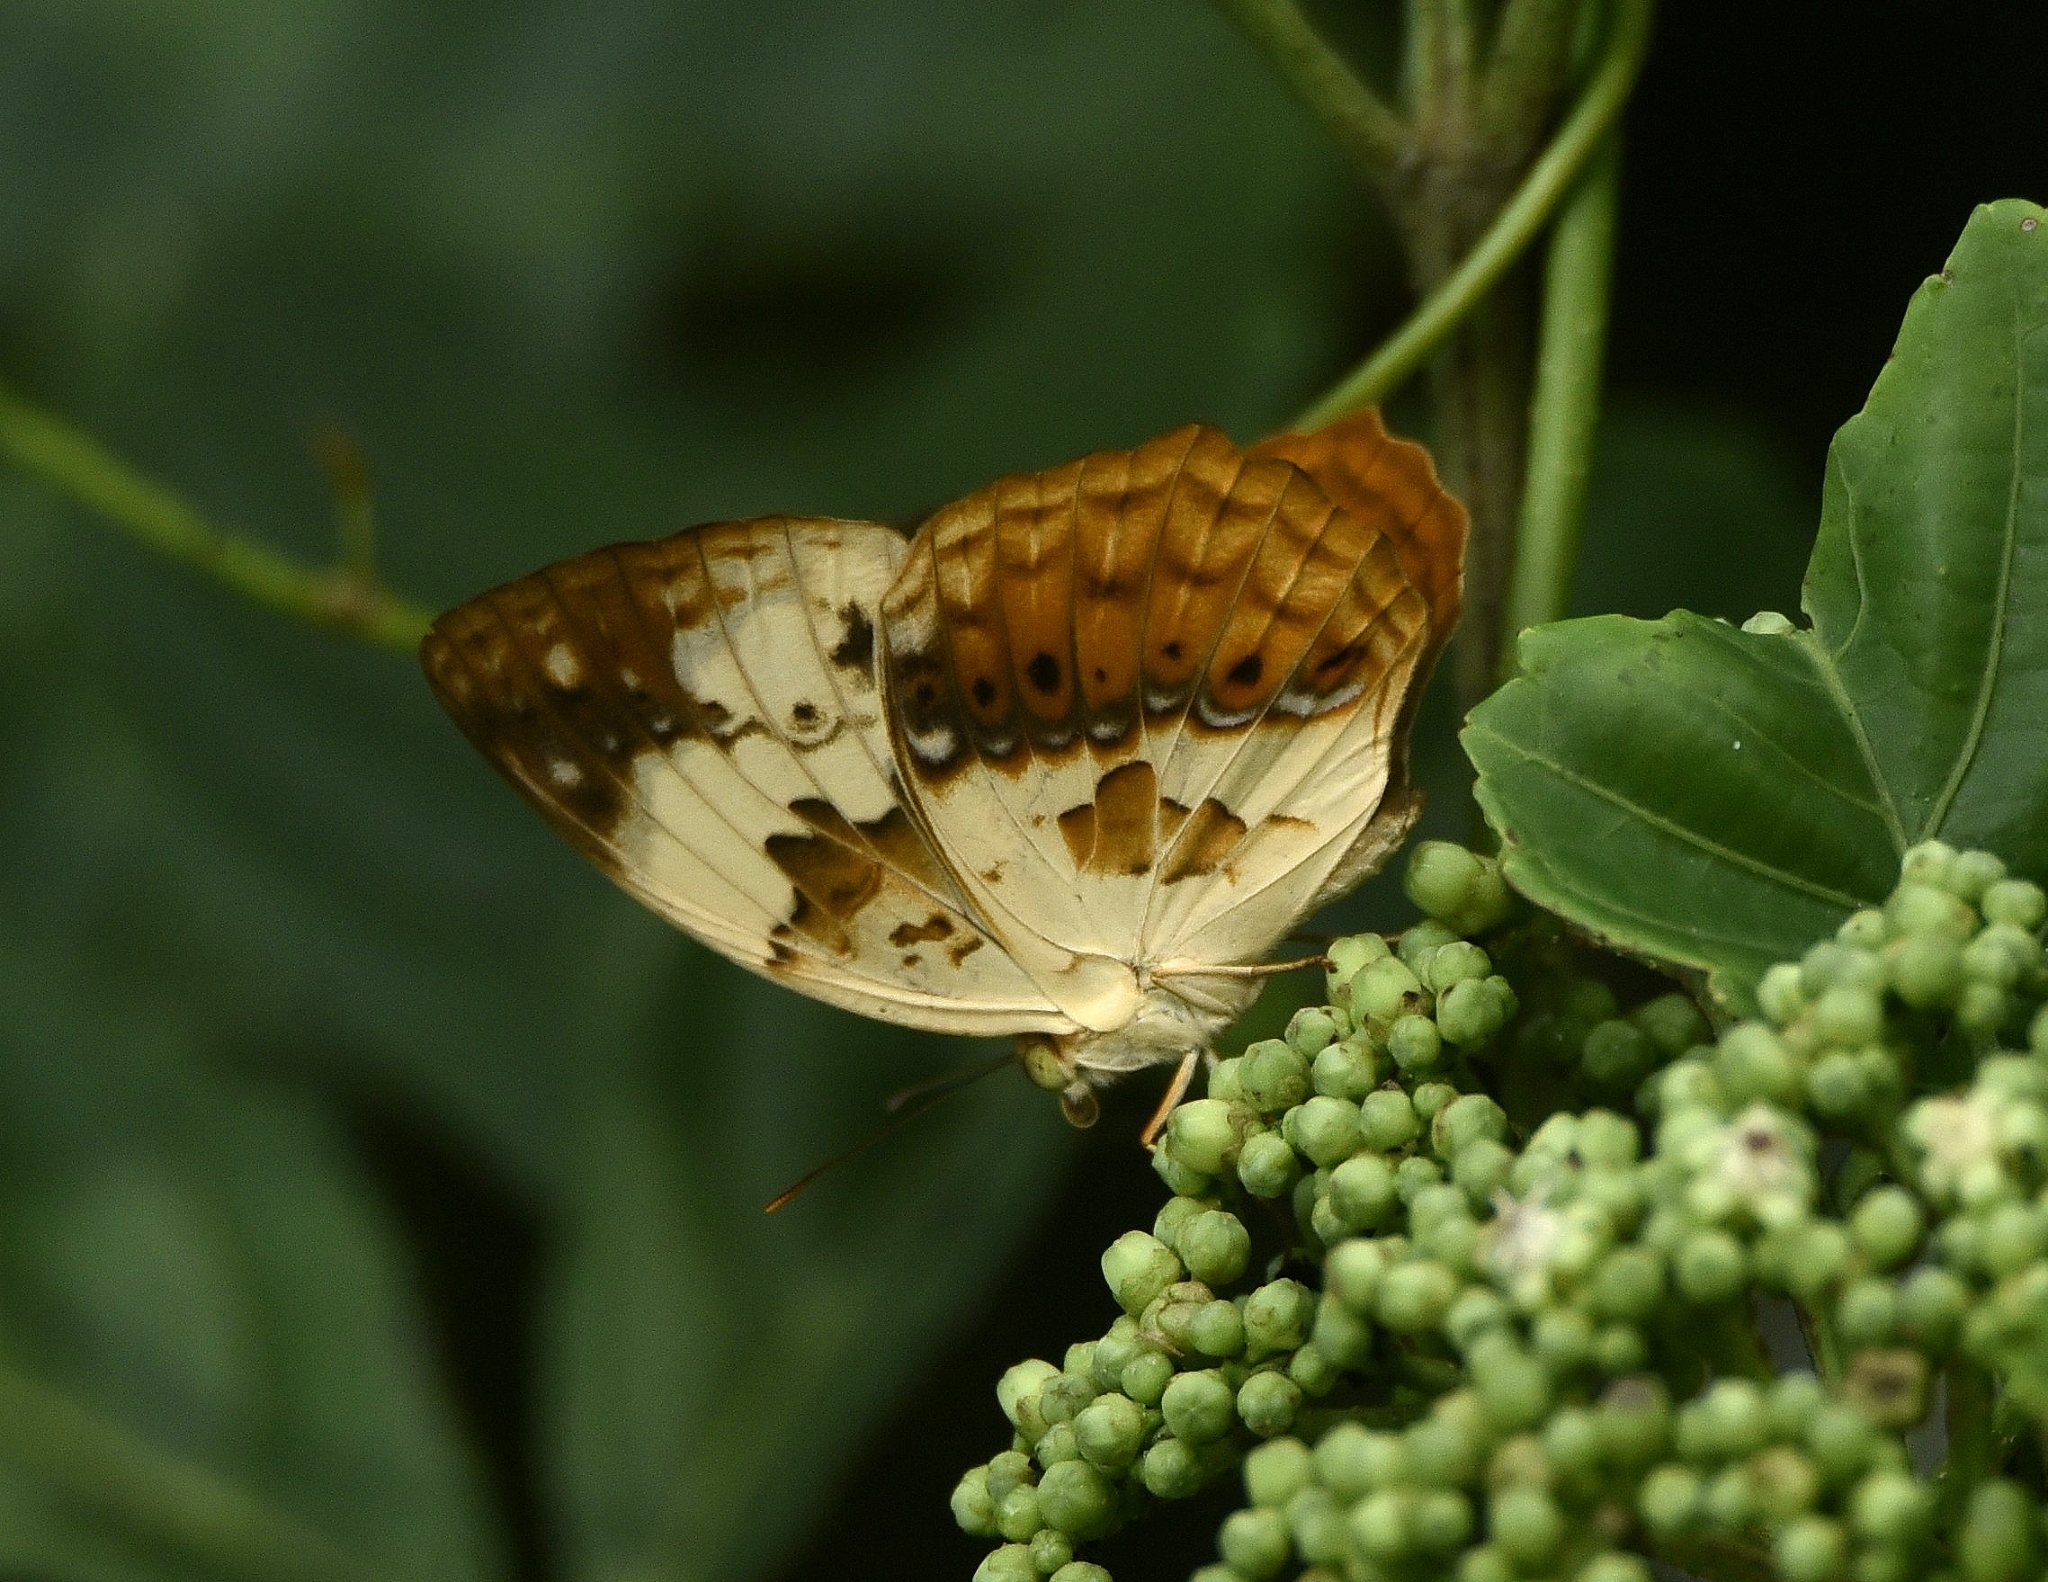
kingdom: Animalia
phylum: Arthropoda
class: Insecta
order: Lepidoptera
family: Nymphalidae
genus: Cupha
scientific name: Cupha erymanthis
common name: Rustic
